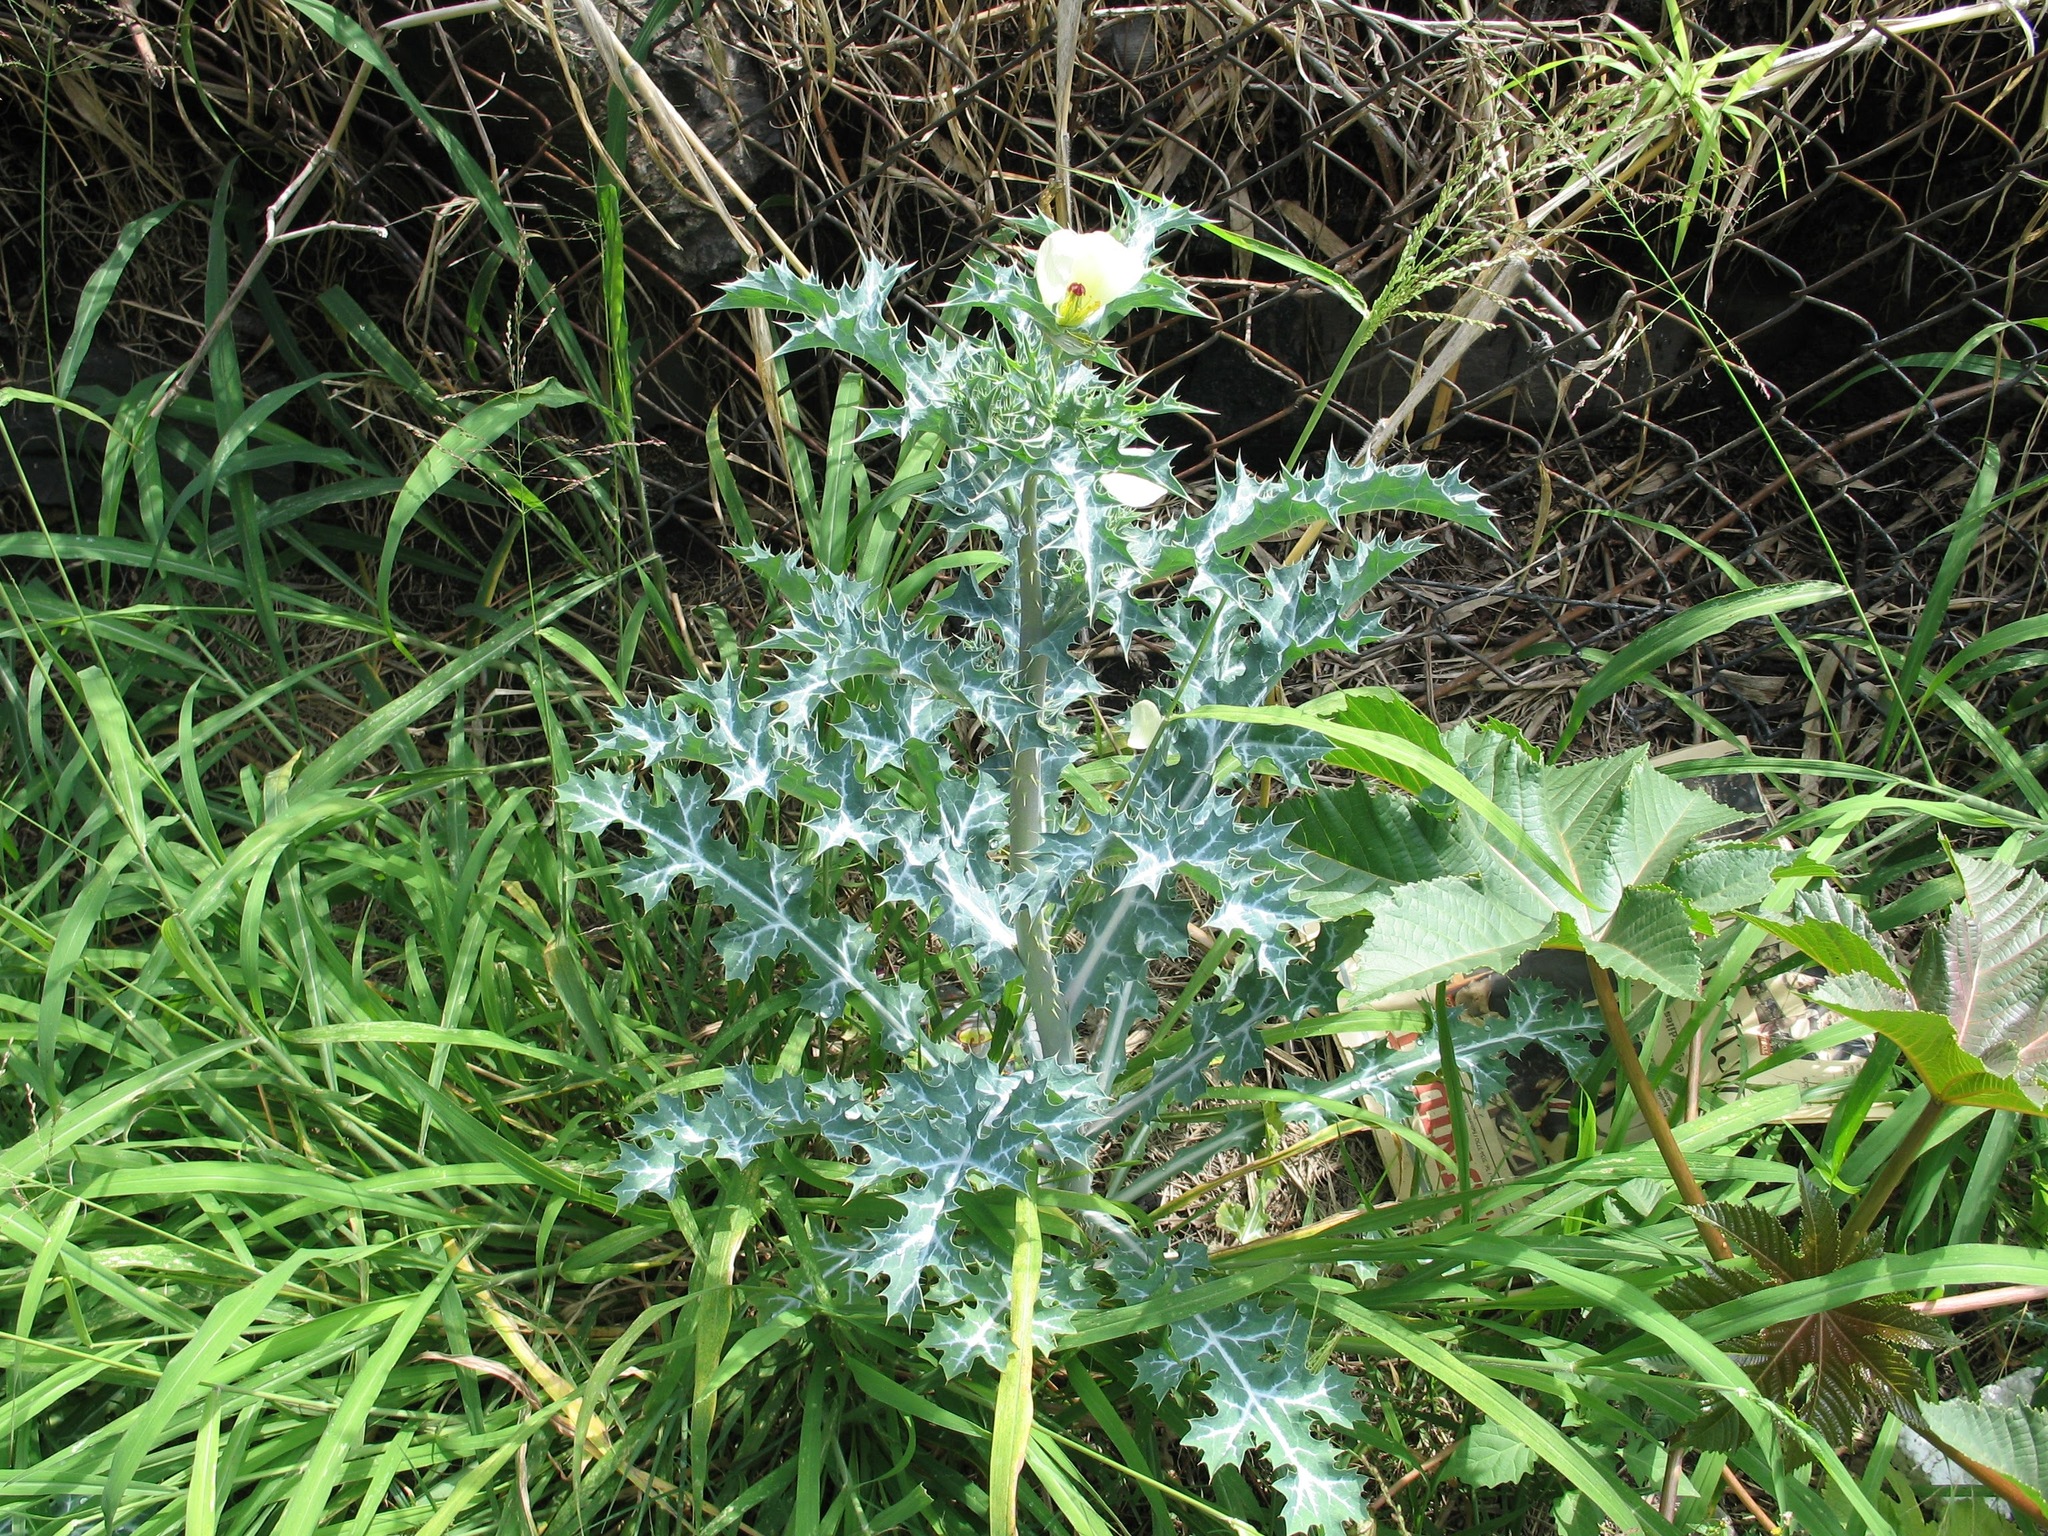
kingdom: Plantae
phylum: Tracheophyta
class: Magnoliopsida
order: Ranunculales
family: Papaveraceae
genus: Argemone
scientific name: Argemone ochroleuca
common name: White-flower mexican-poppy
